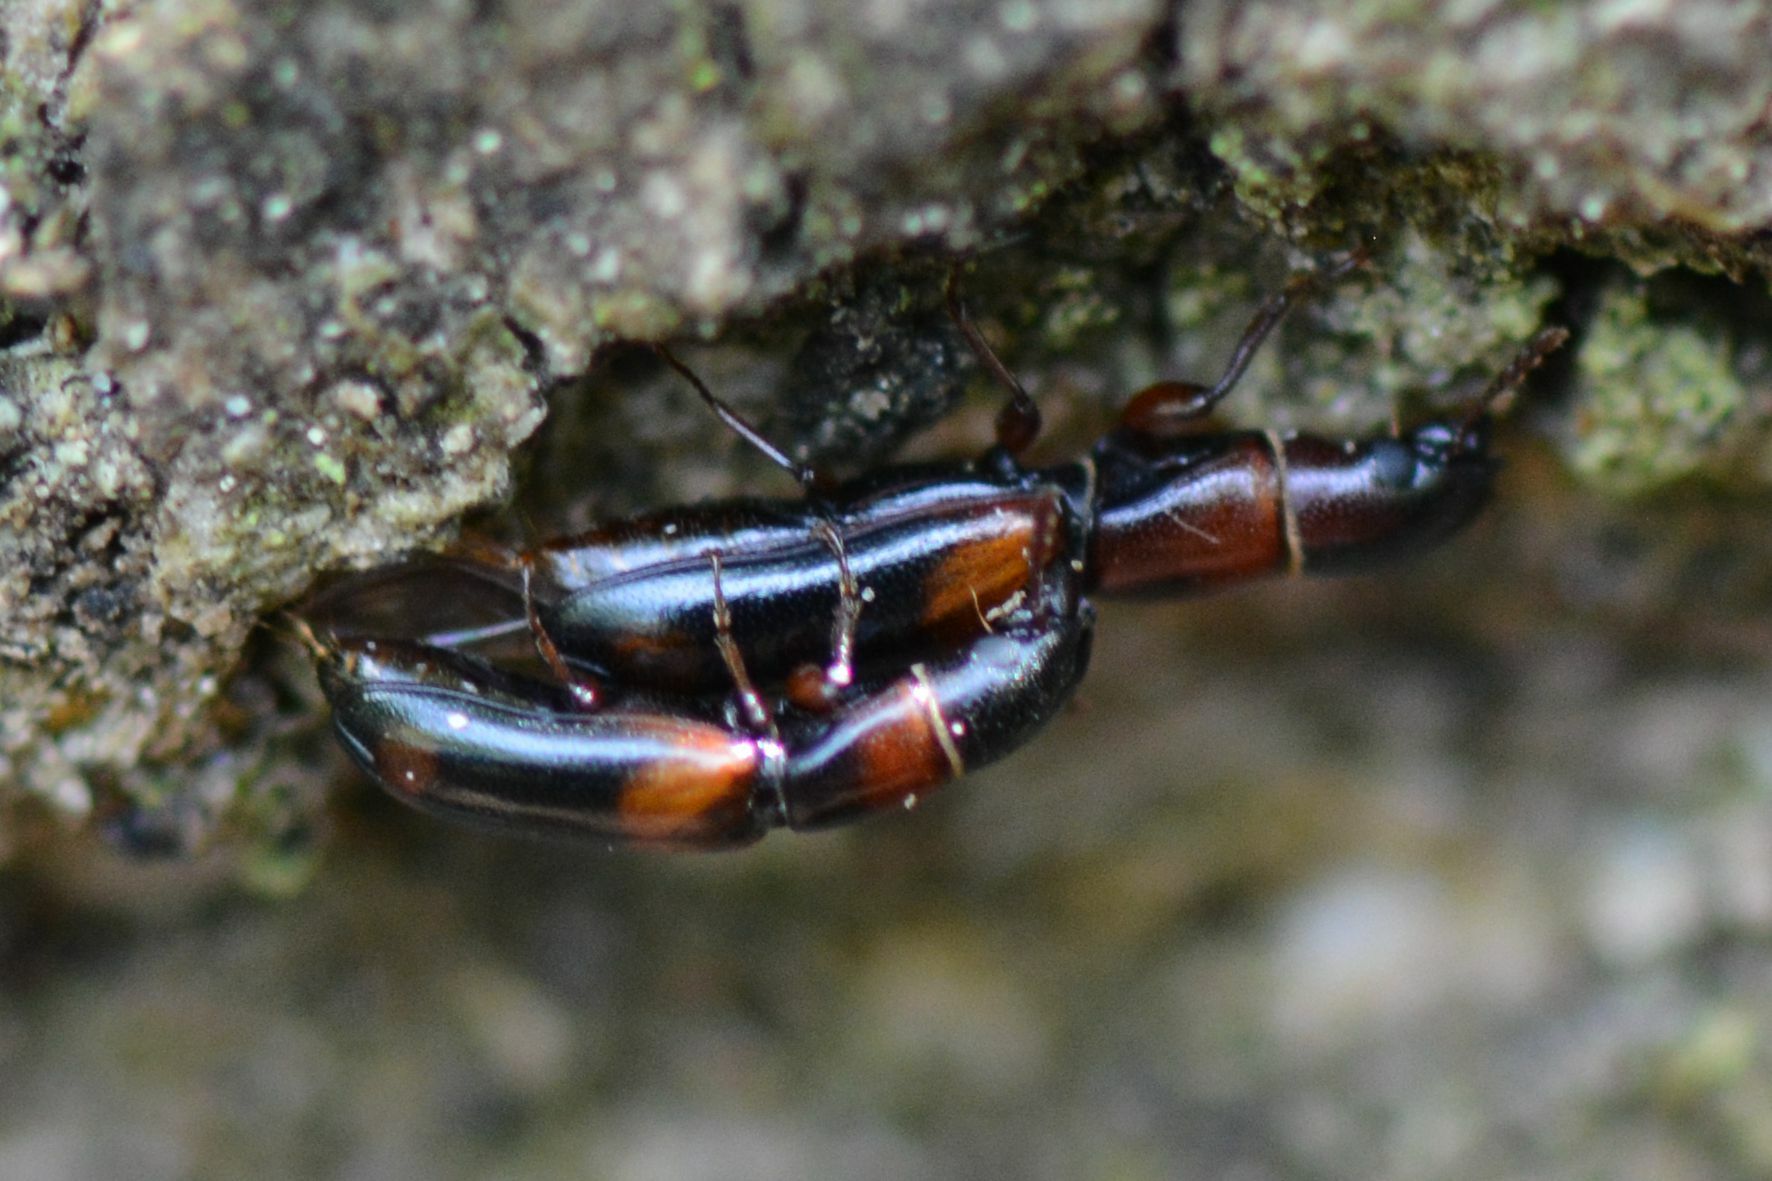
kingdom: Animalia
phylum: Arthropoda
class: Insecta
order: Coleoptera
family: Trogossitidae
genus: Nemozoma
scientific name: Nemozoma caucasicum
